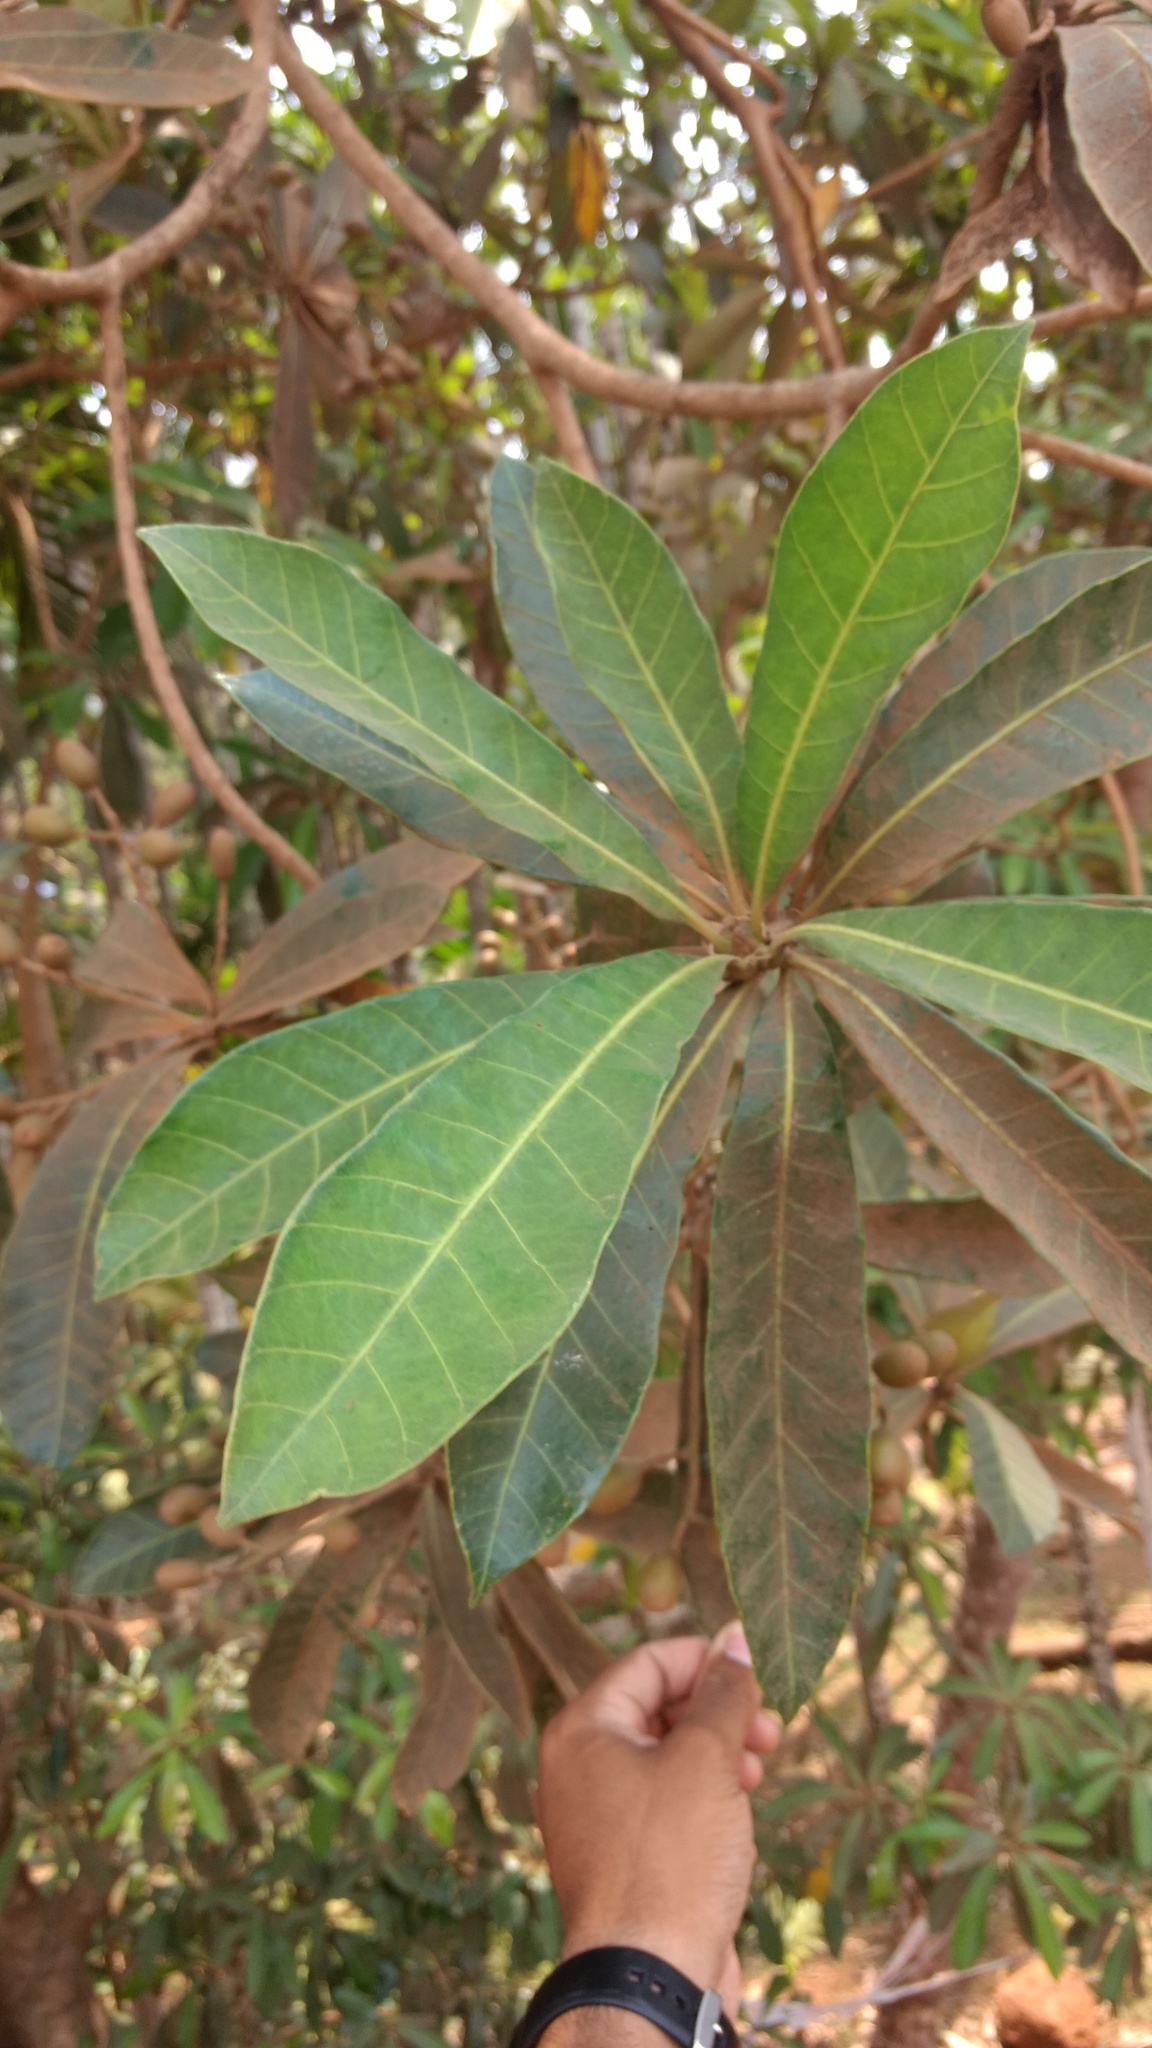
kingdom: Plantae
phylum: Tracheophyta
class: Magnoliopsida
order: Sapindales
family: Anacardiaceae
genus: Holigarna
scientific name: Holigarna arnottiana
